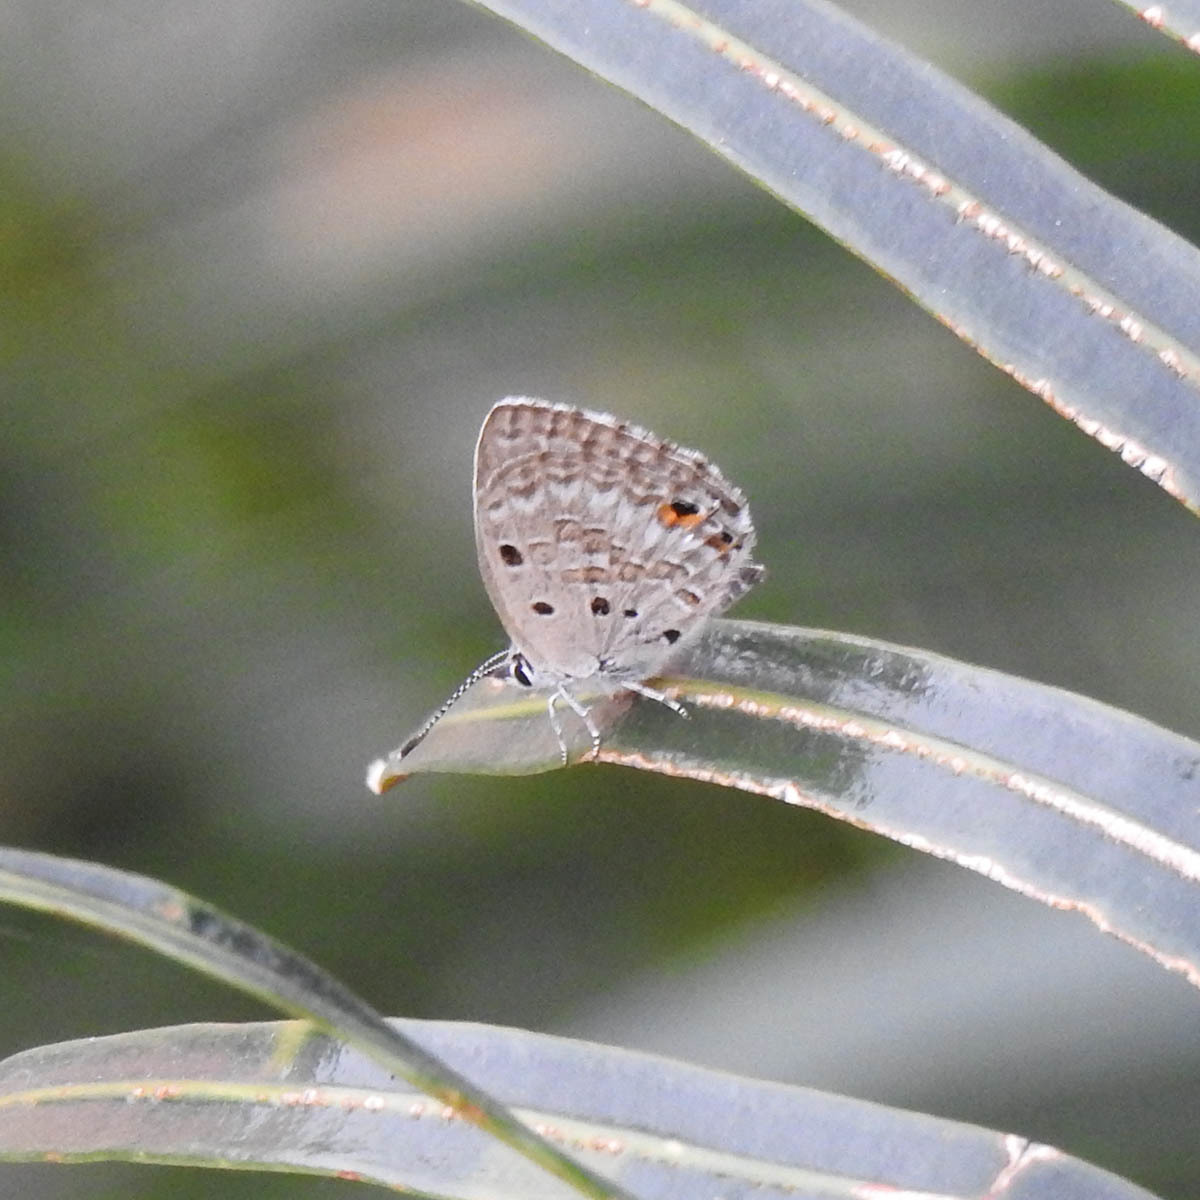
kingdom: Animalia
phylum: Arthropoda
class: Insecta
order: Lepidoptera
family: Lycaenidae
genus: Luthrodes
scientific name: Luthrodes pandava
